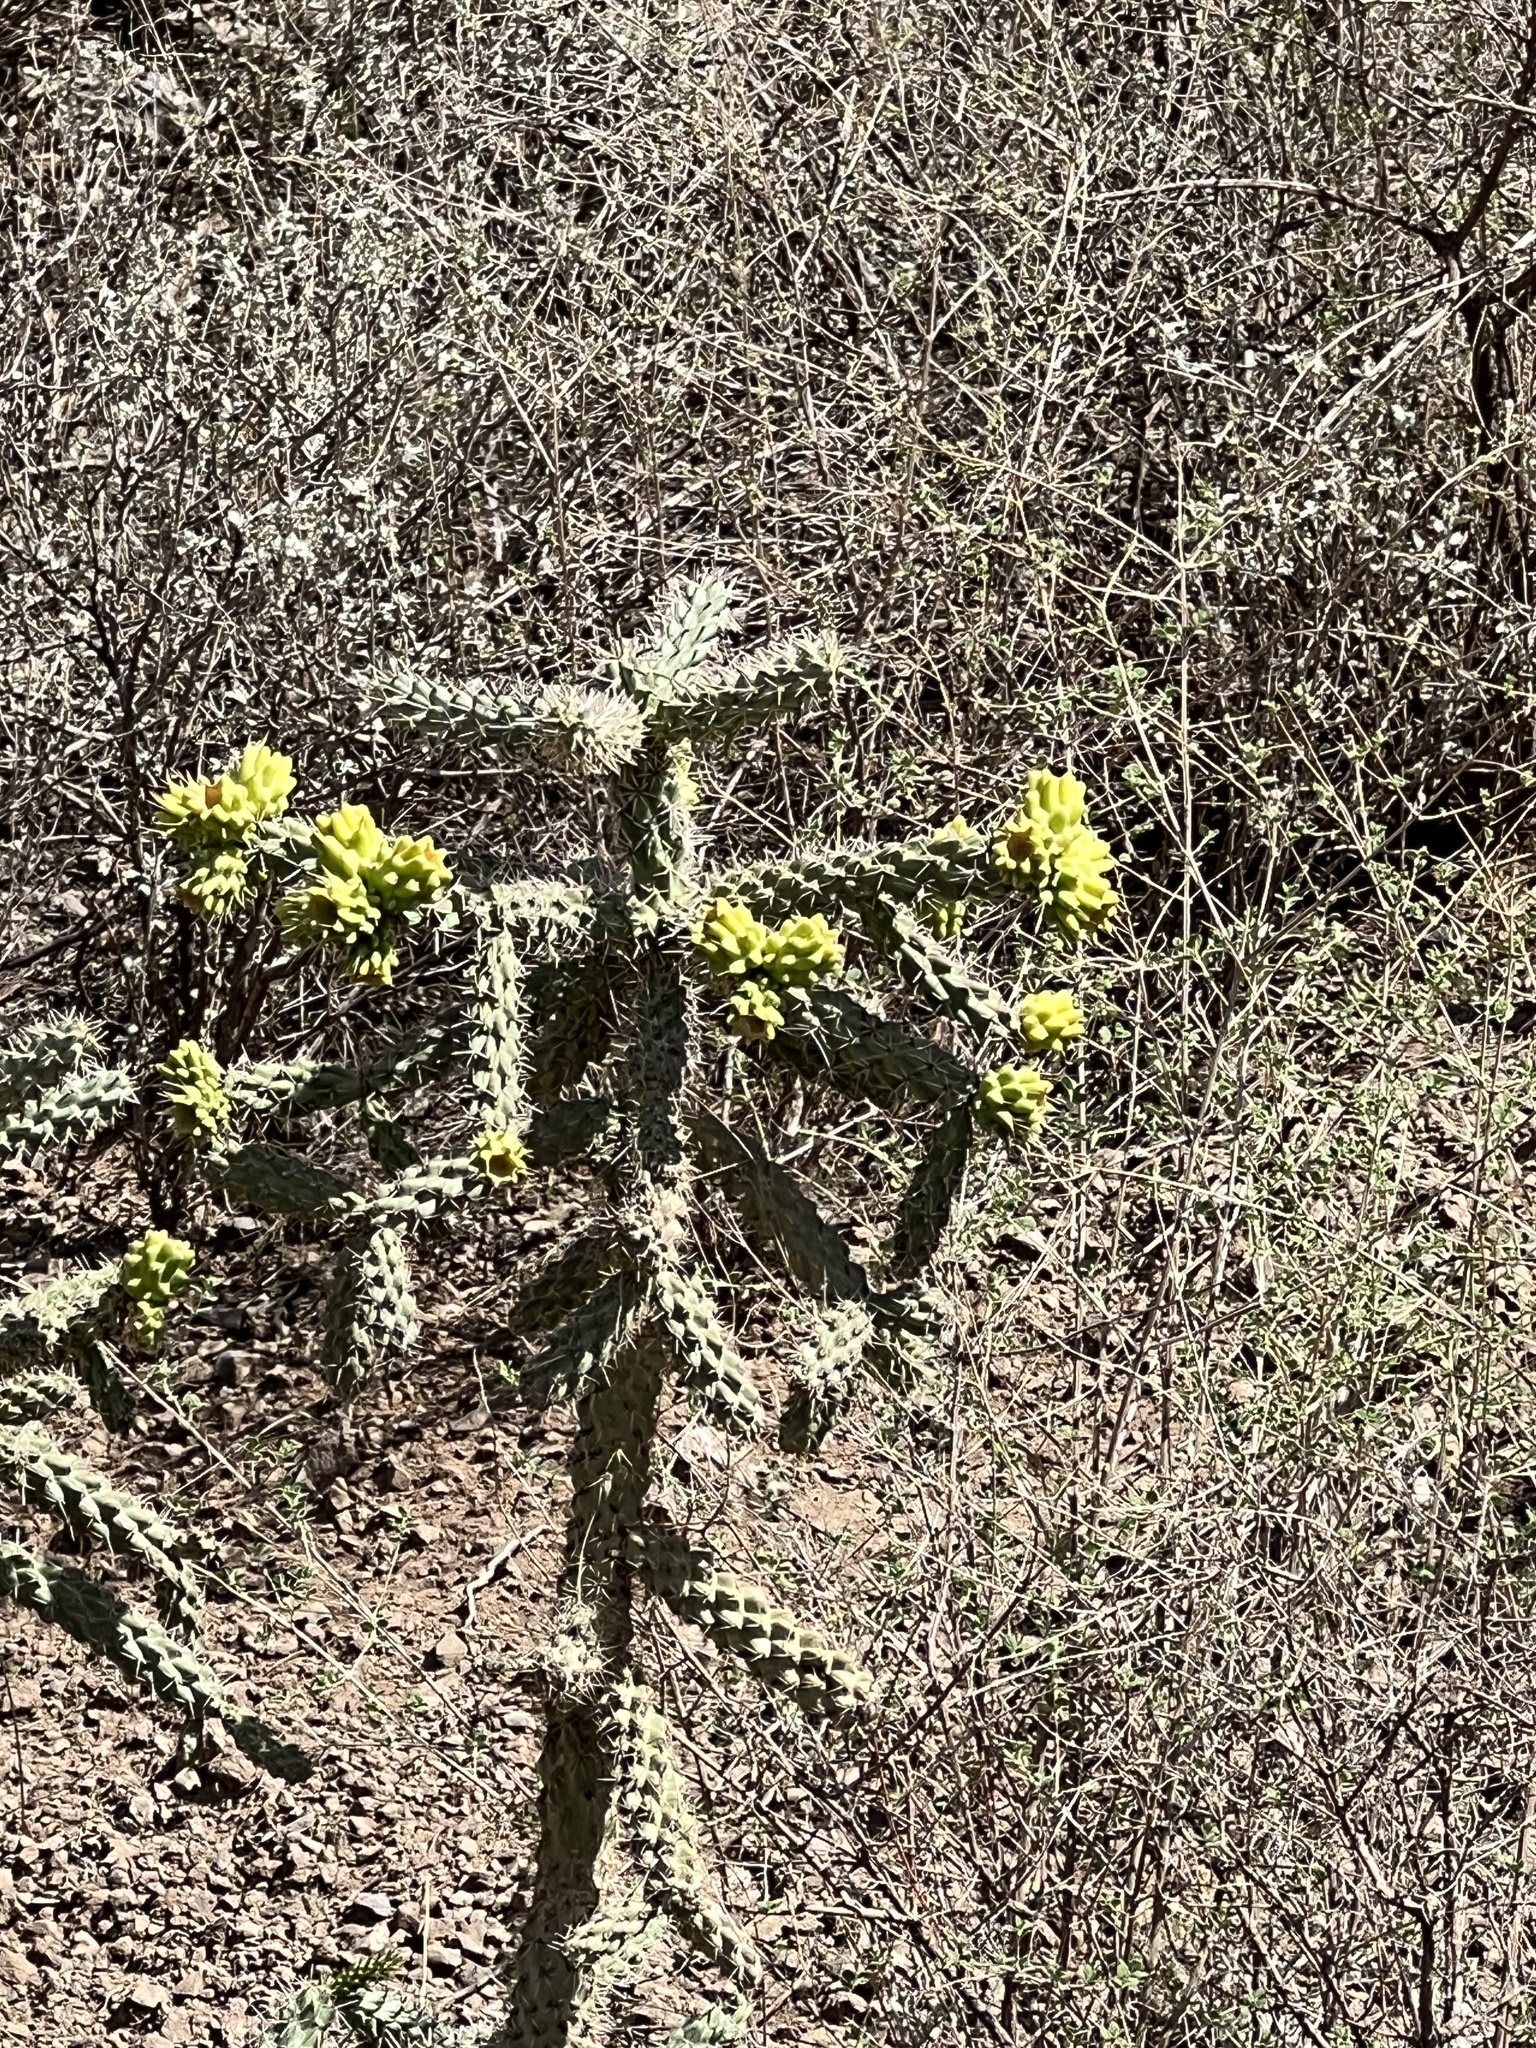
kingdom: Plantae
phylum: Tracheophyta
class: Magnoliopsida
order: Caryophyllales
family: Cactaceae
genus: Cylindropuntia
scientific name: Cylindropuntia imbricata
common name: Candelabrum cactus
